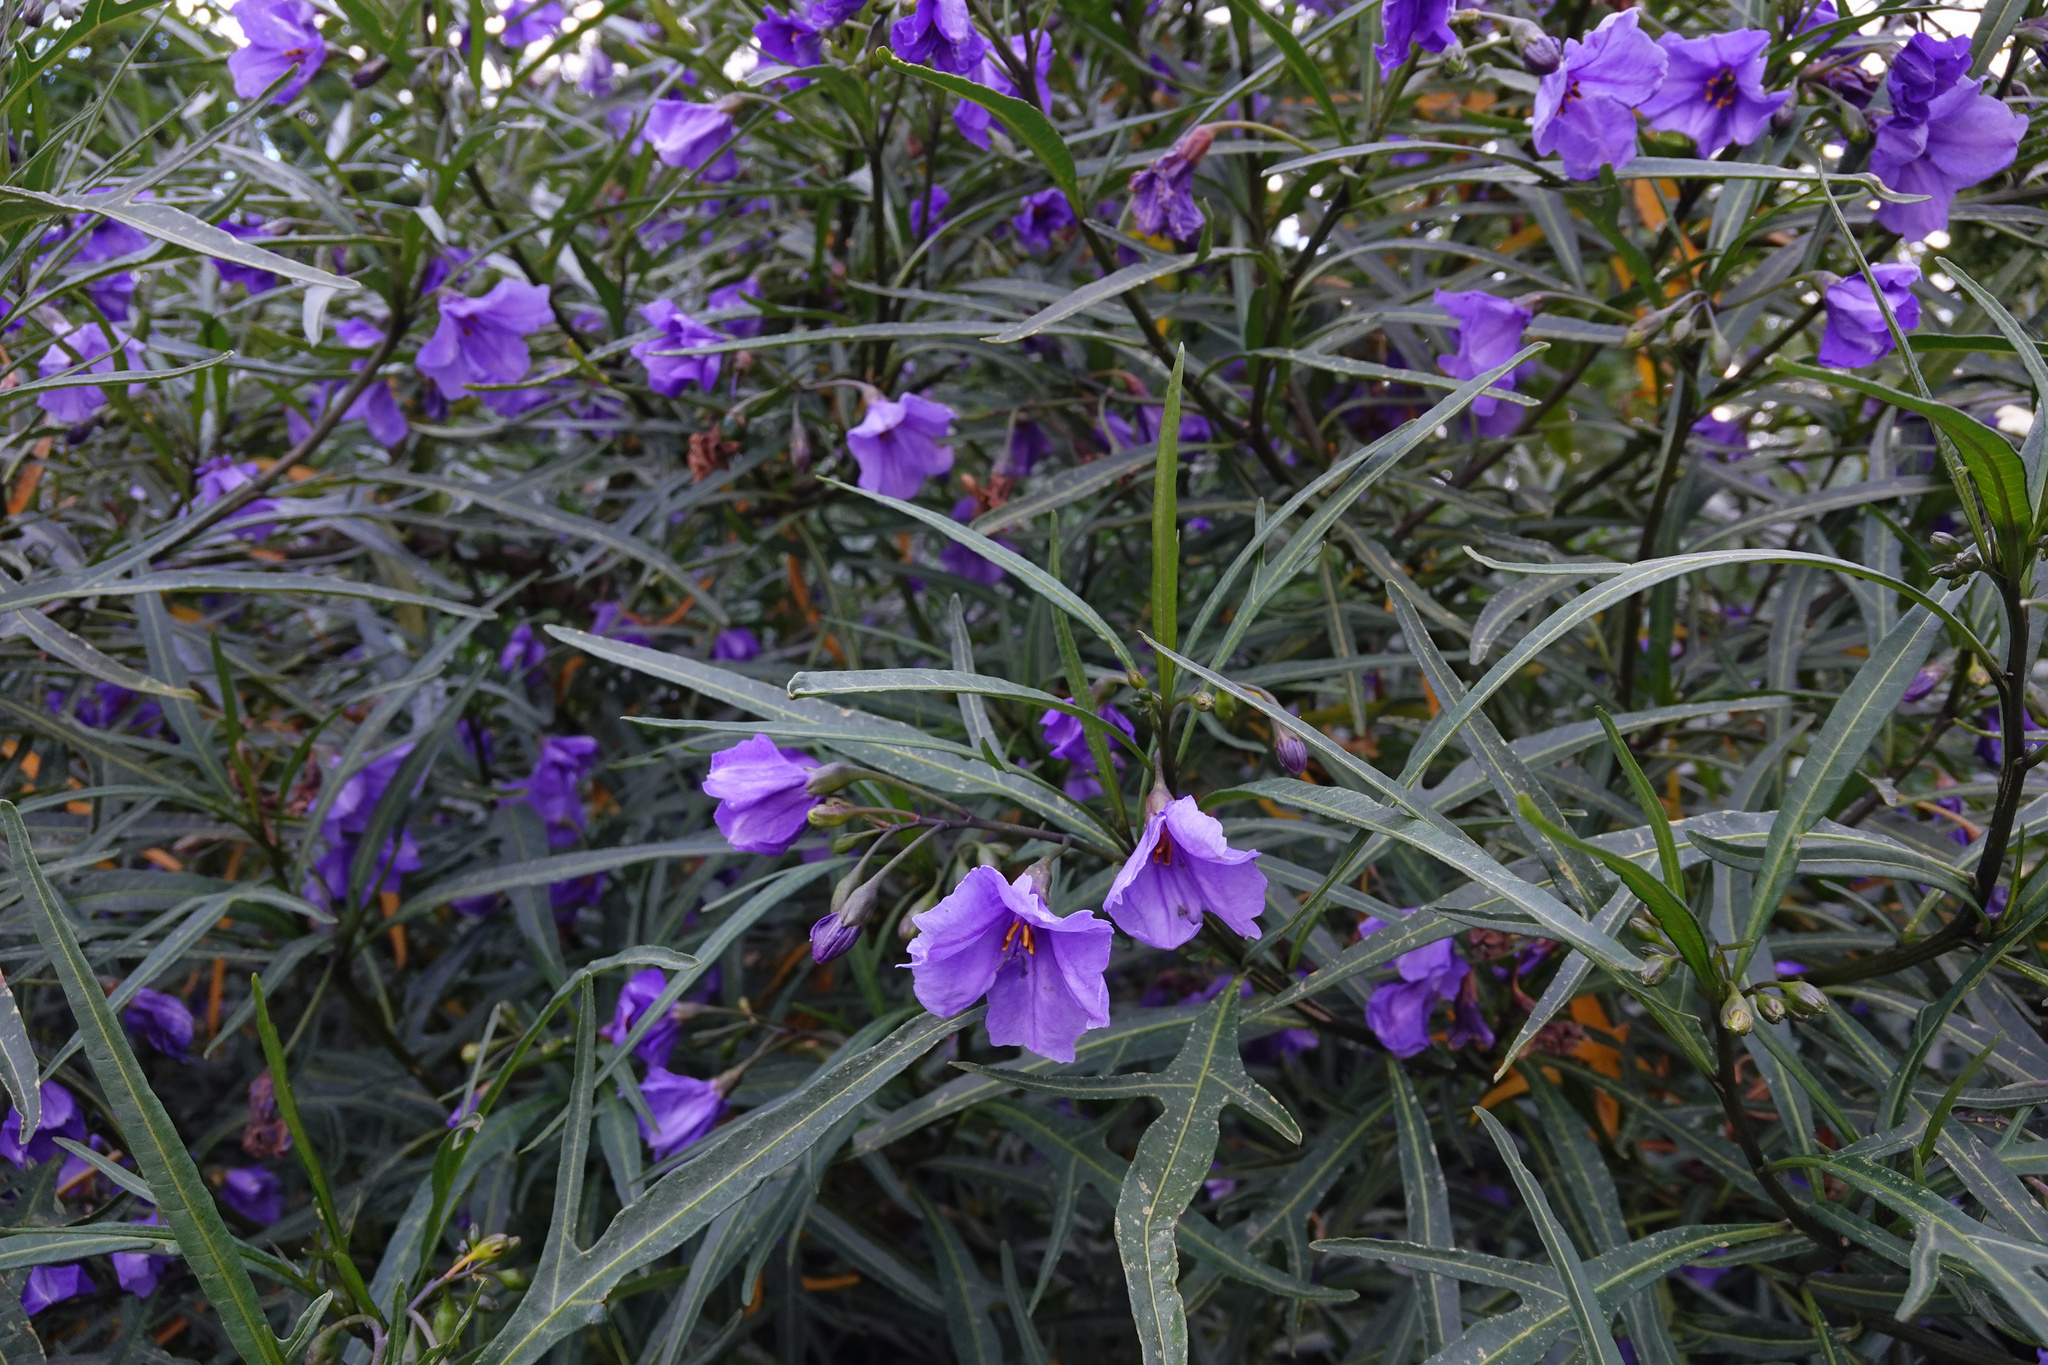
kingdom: Plantae
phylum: Tracheophyta
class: Magnoliopsida
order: Solanales
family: Solanaceae
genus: Solanum
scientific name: Solanum laciniatum
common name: Kangaroo-apple
